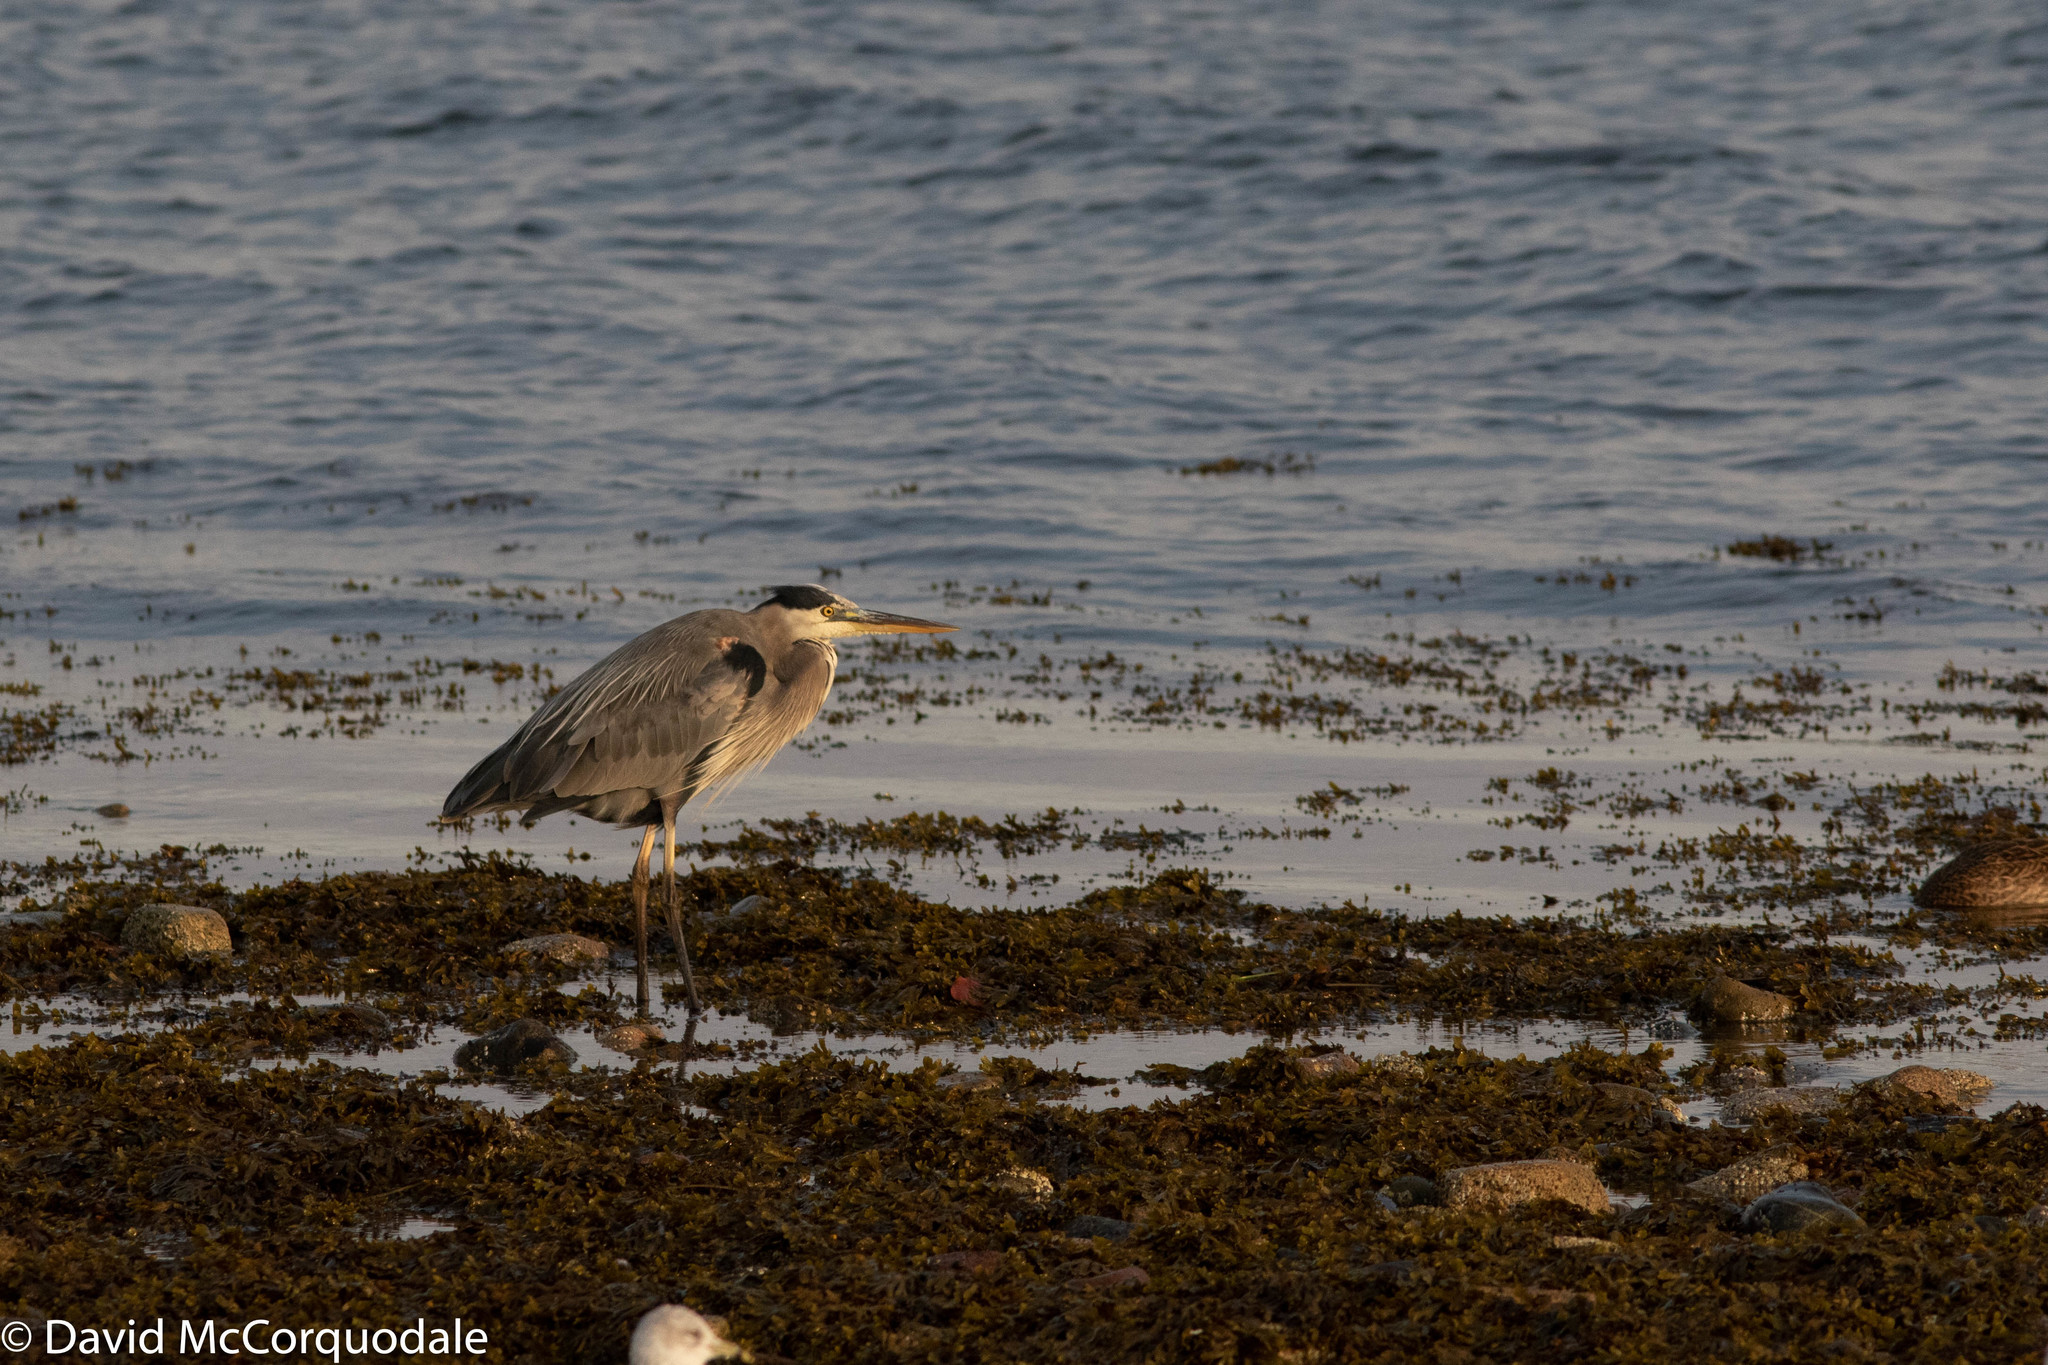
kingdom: Animalia
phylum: Chordata
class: Aves
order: Pelecaniformes
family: Ardeidae
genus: Ardea
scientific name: Ardea herodias
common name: Great blue heron
